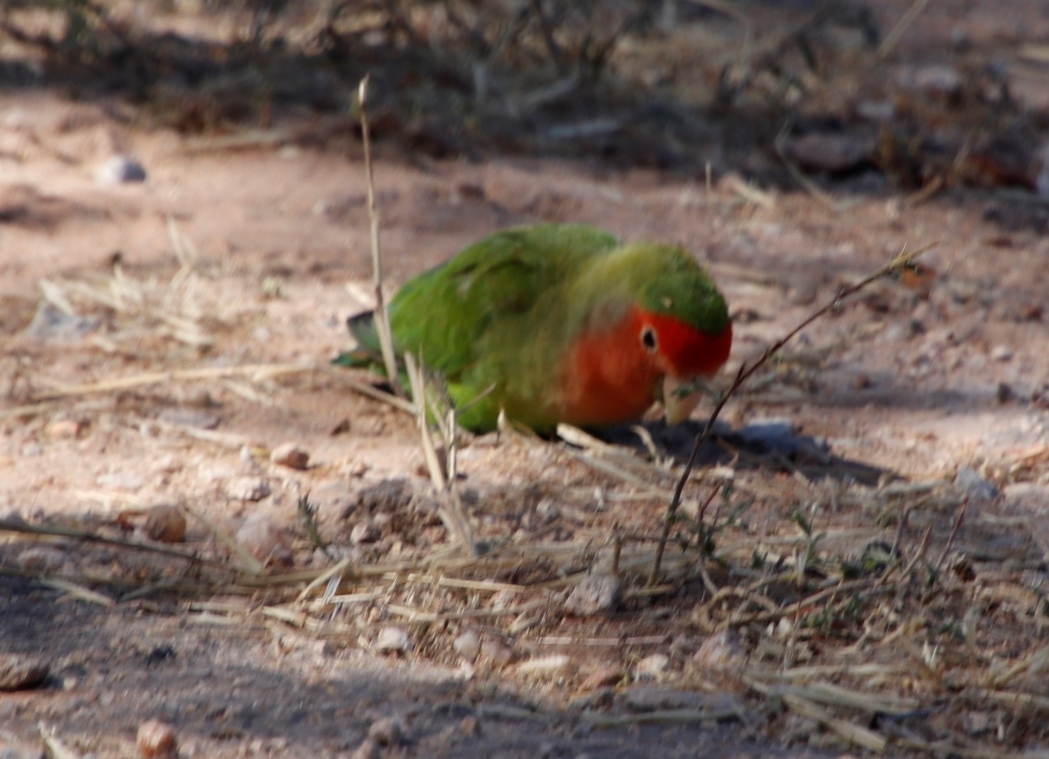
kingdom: Animalia
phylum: Chordata
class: Aves
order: Psittaciformes
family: Psittacidae
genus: Agapornis
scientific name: Agapornis roseicollis
